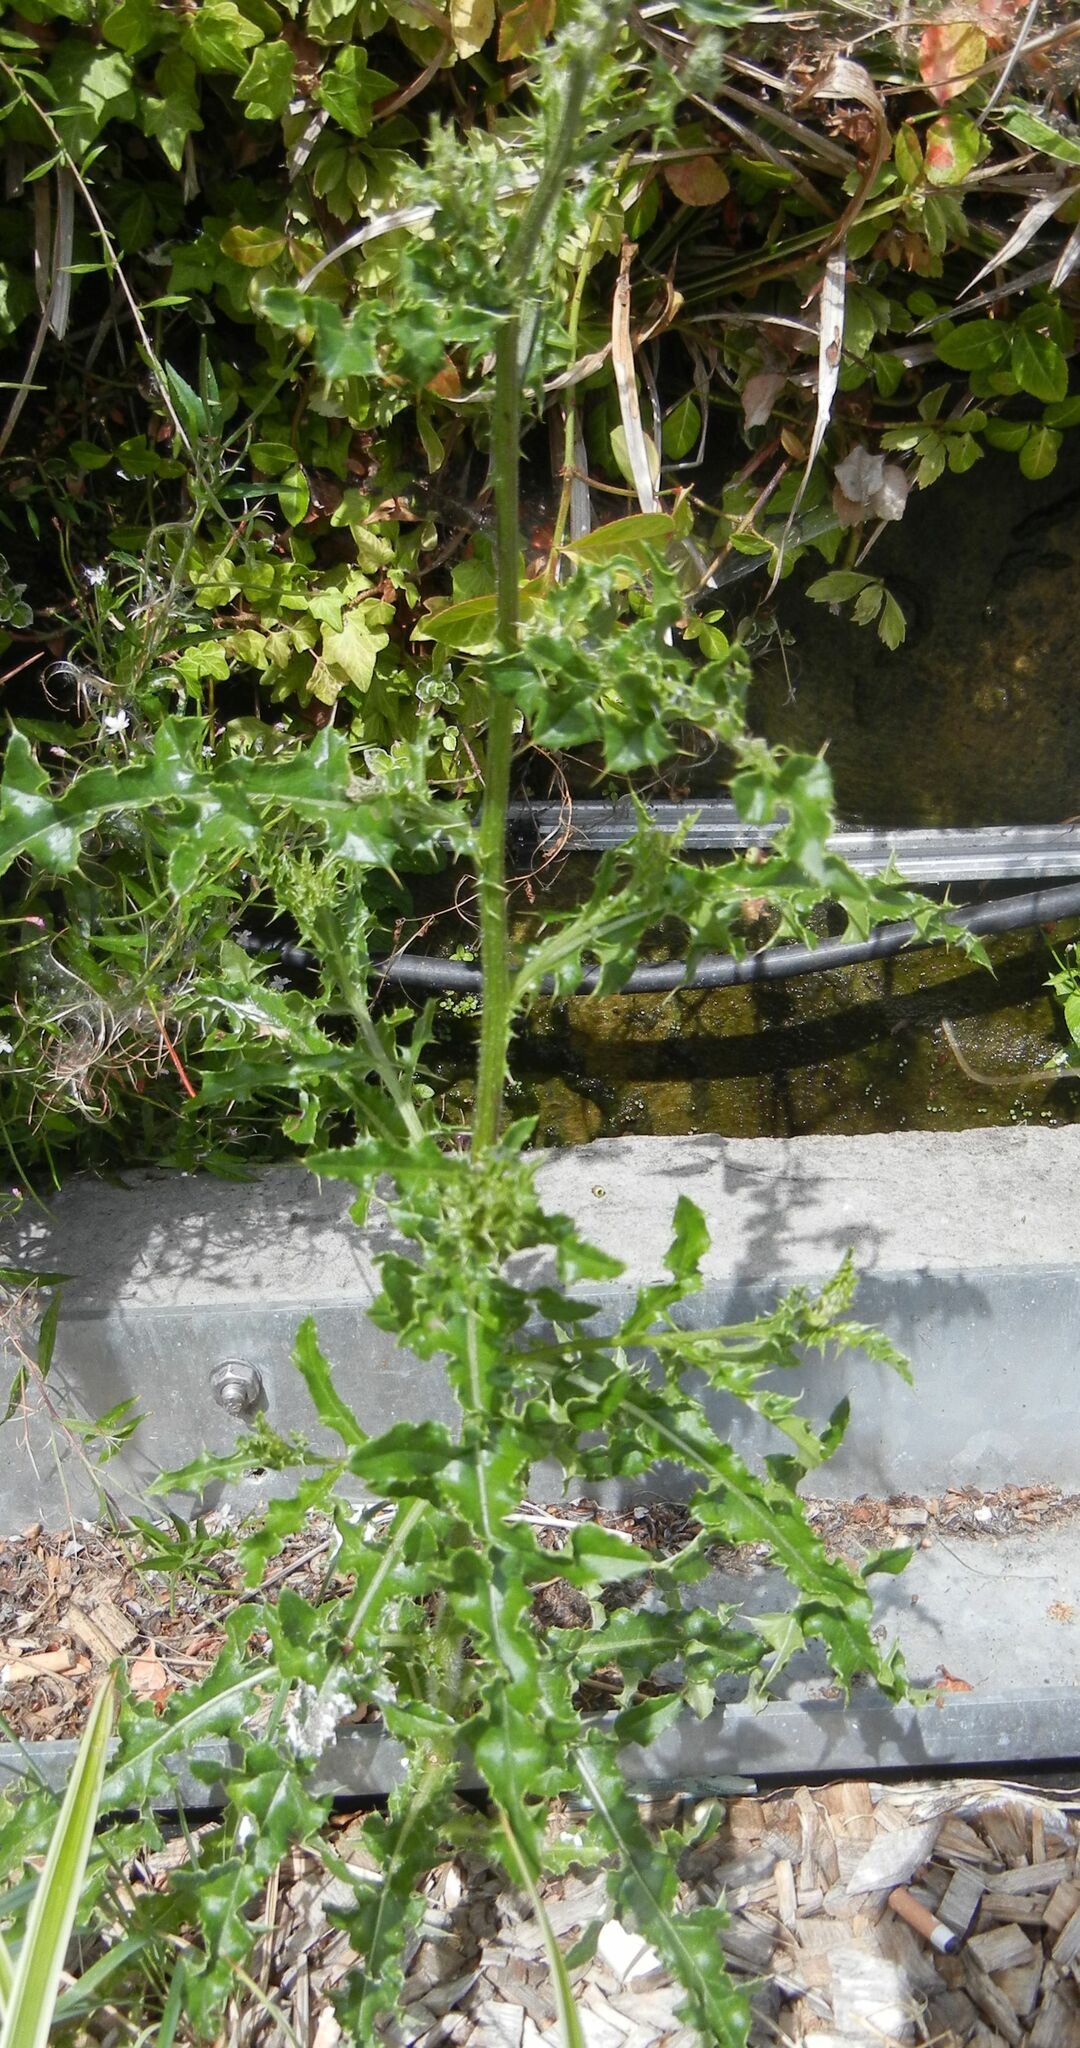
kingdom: Plantae
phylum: Tracheophyta
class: Magnoliopsida
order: Asterales
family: Asteraceae
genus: Cirsium
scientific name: Cirsium arvense
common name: Creeping thistle
